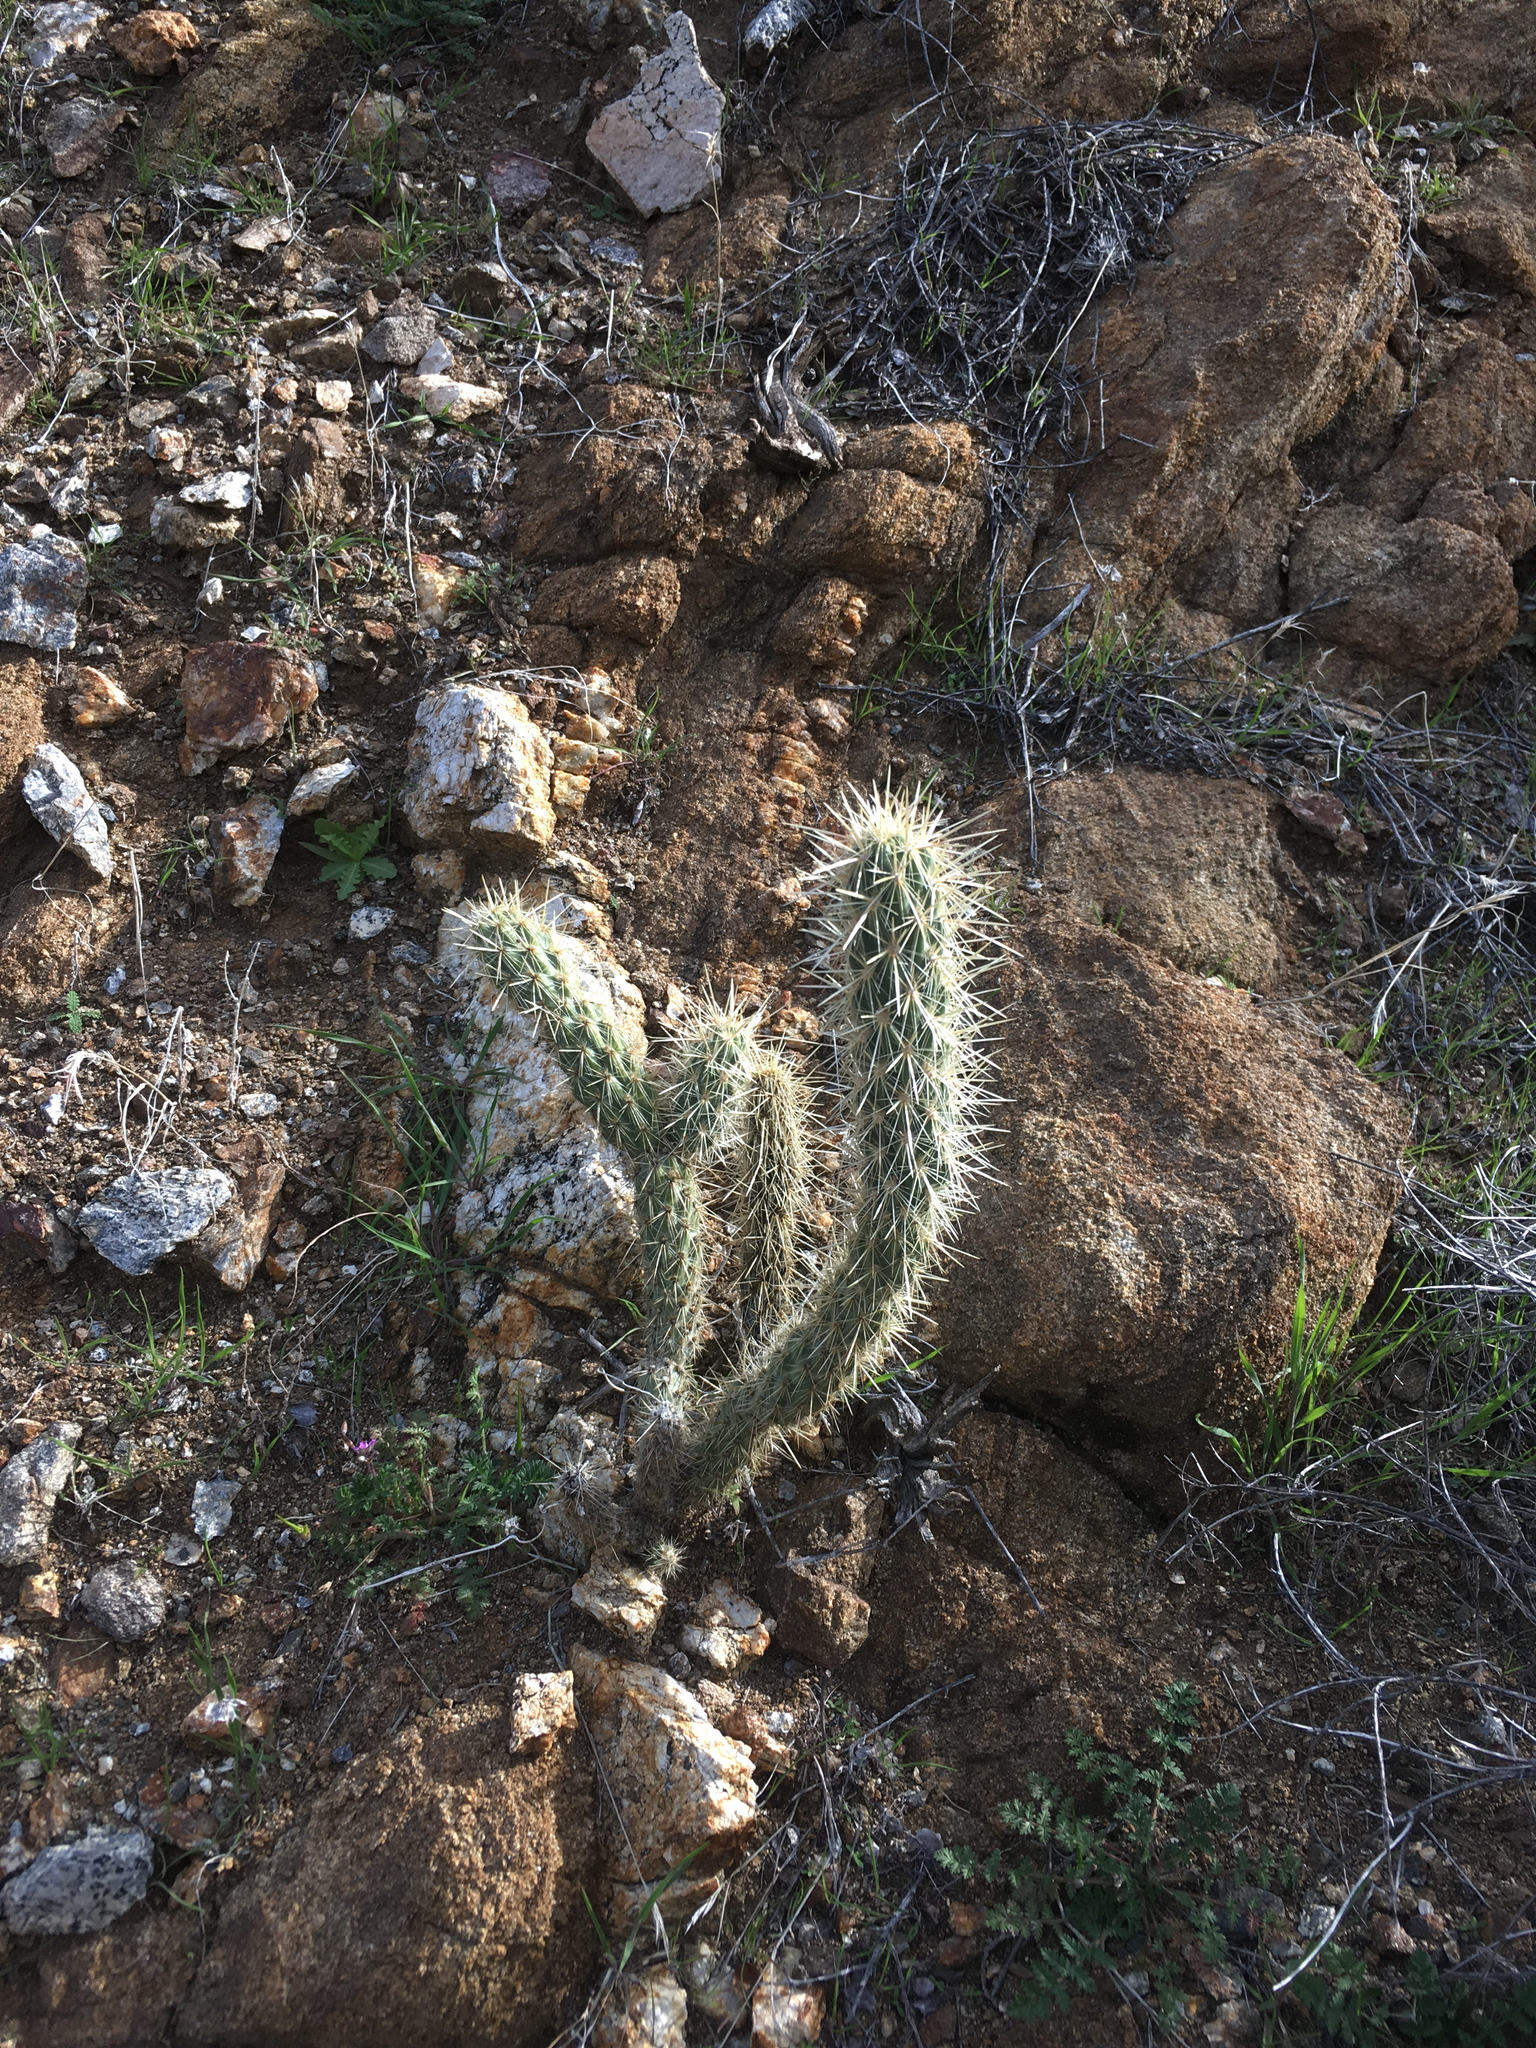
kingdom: Plantae
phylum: Tracheophyta
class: Magnoliopsida
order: Caryophyllales
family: Cactaceae
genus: Cylindropuntia
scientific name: Cylindropuntia ganderi
